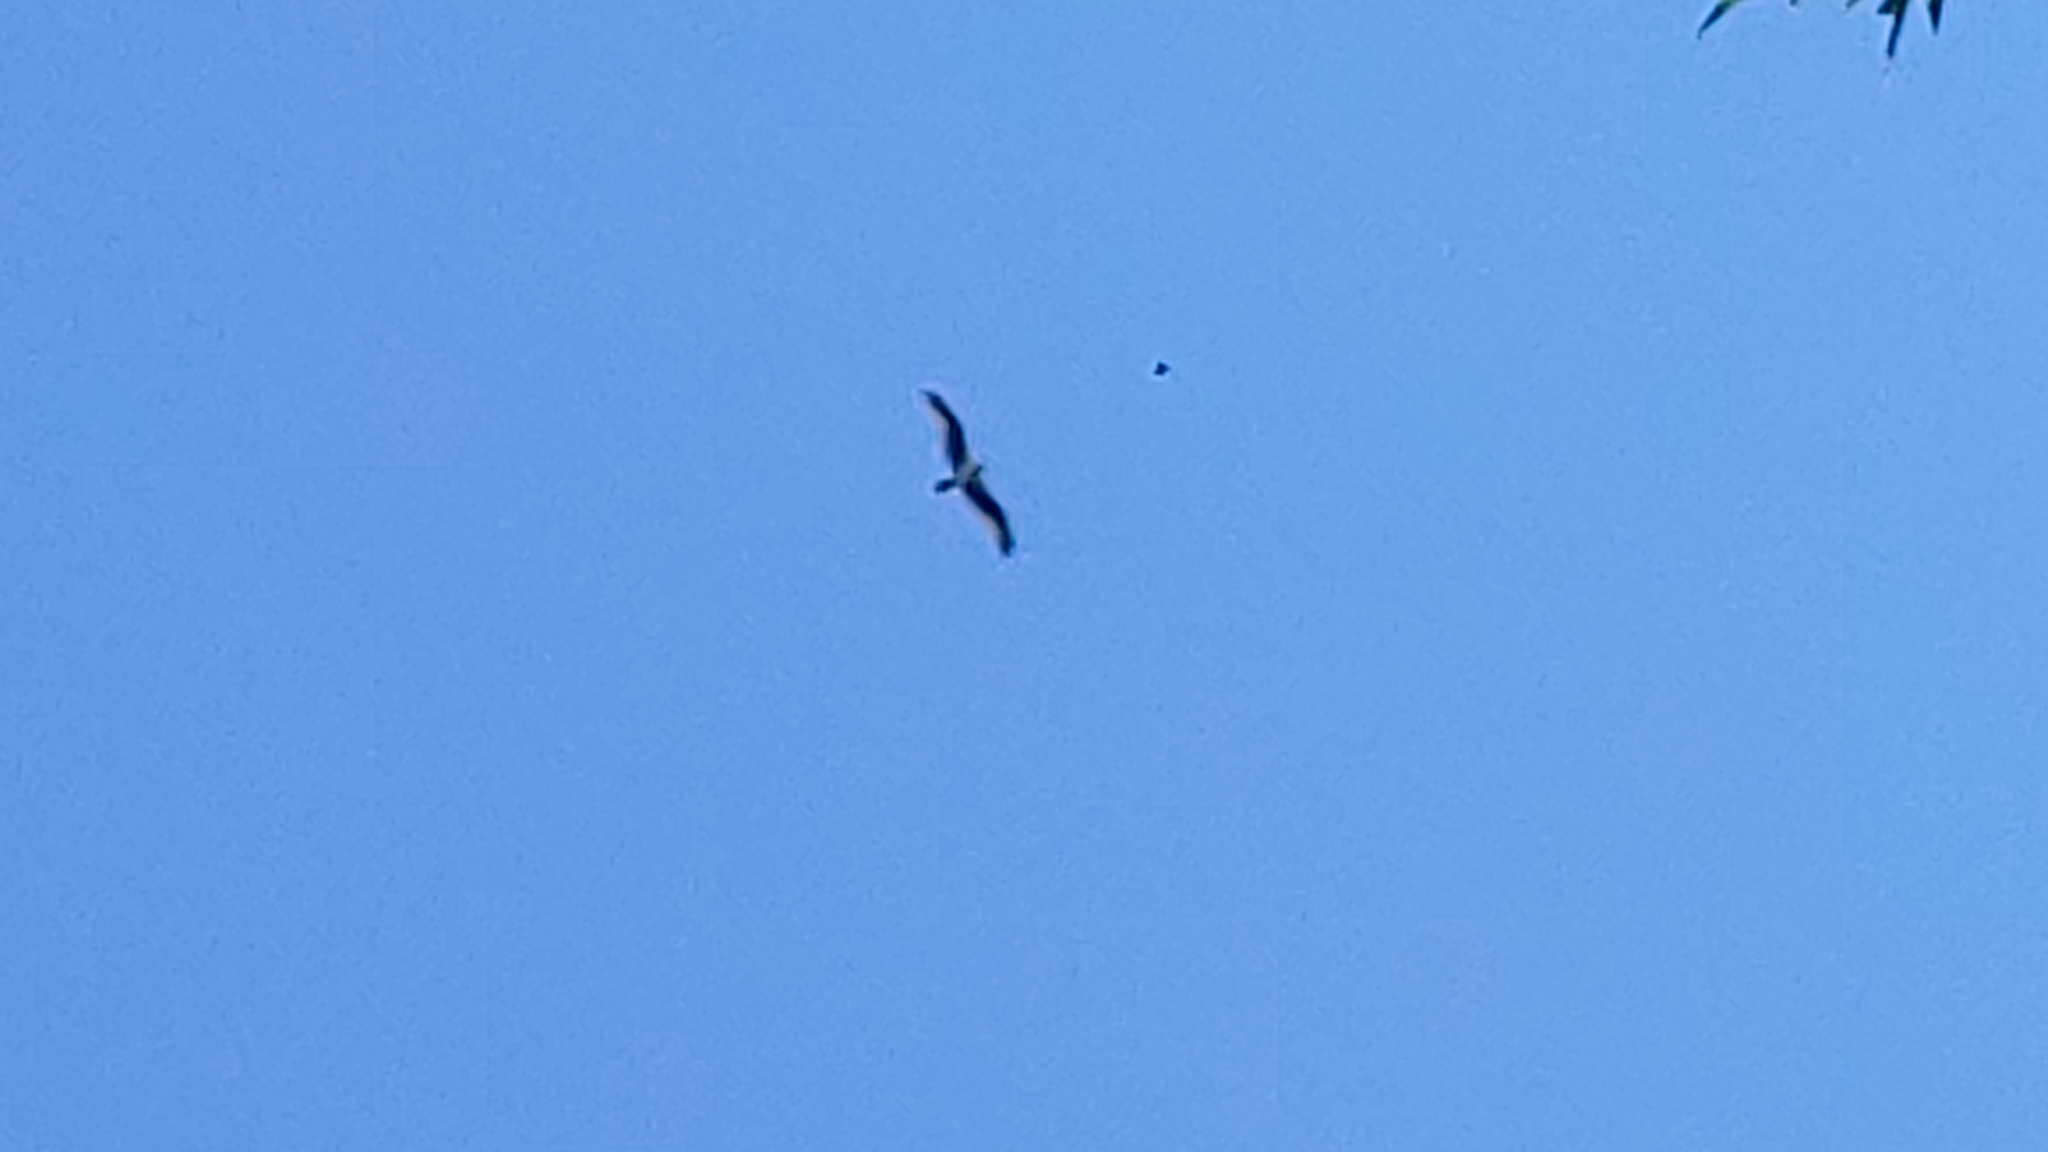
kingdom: Animalia
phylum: Chordata
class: Aves
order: Accipitriformes
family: Pandionidae
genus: Pandion
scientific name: Pandion haliaetus
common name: Osprey
